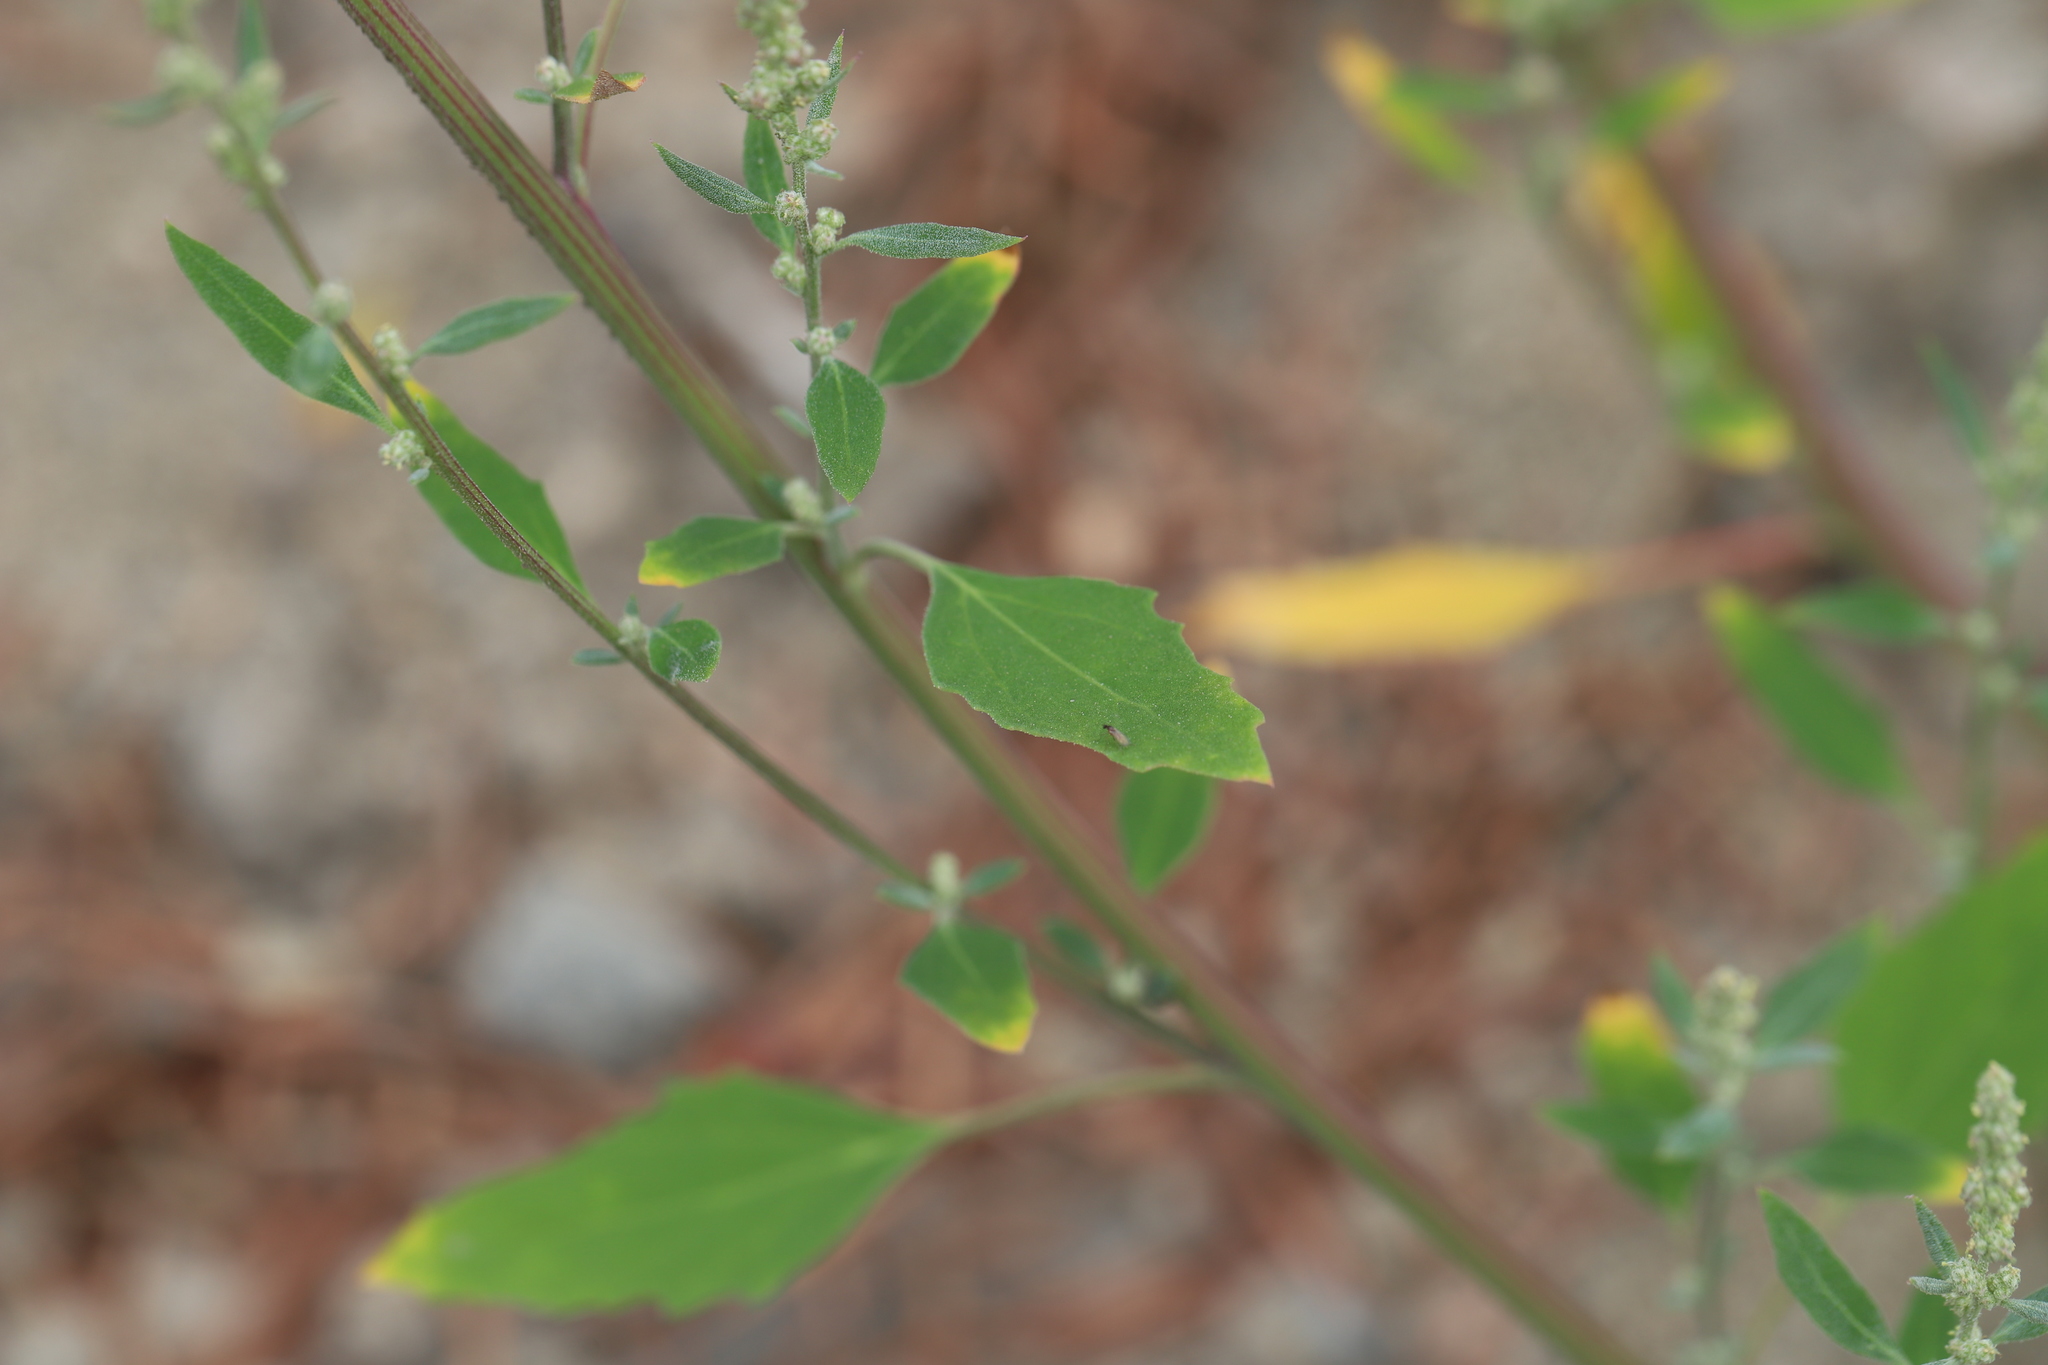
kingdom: Plantae
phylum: Tracheophyta
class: Magnoliopsida
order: Caryophyllales
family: Amaranthaceae
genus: Chenopodium
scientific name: Chenopodium album
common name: Fat-hen
